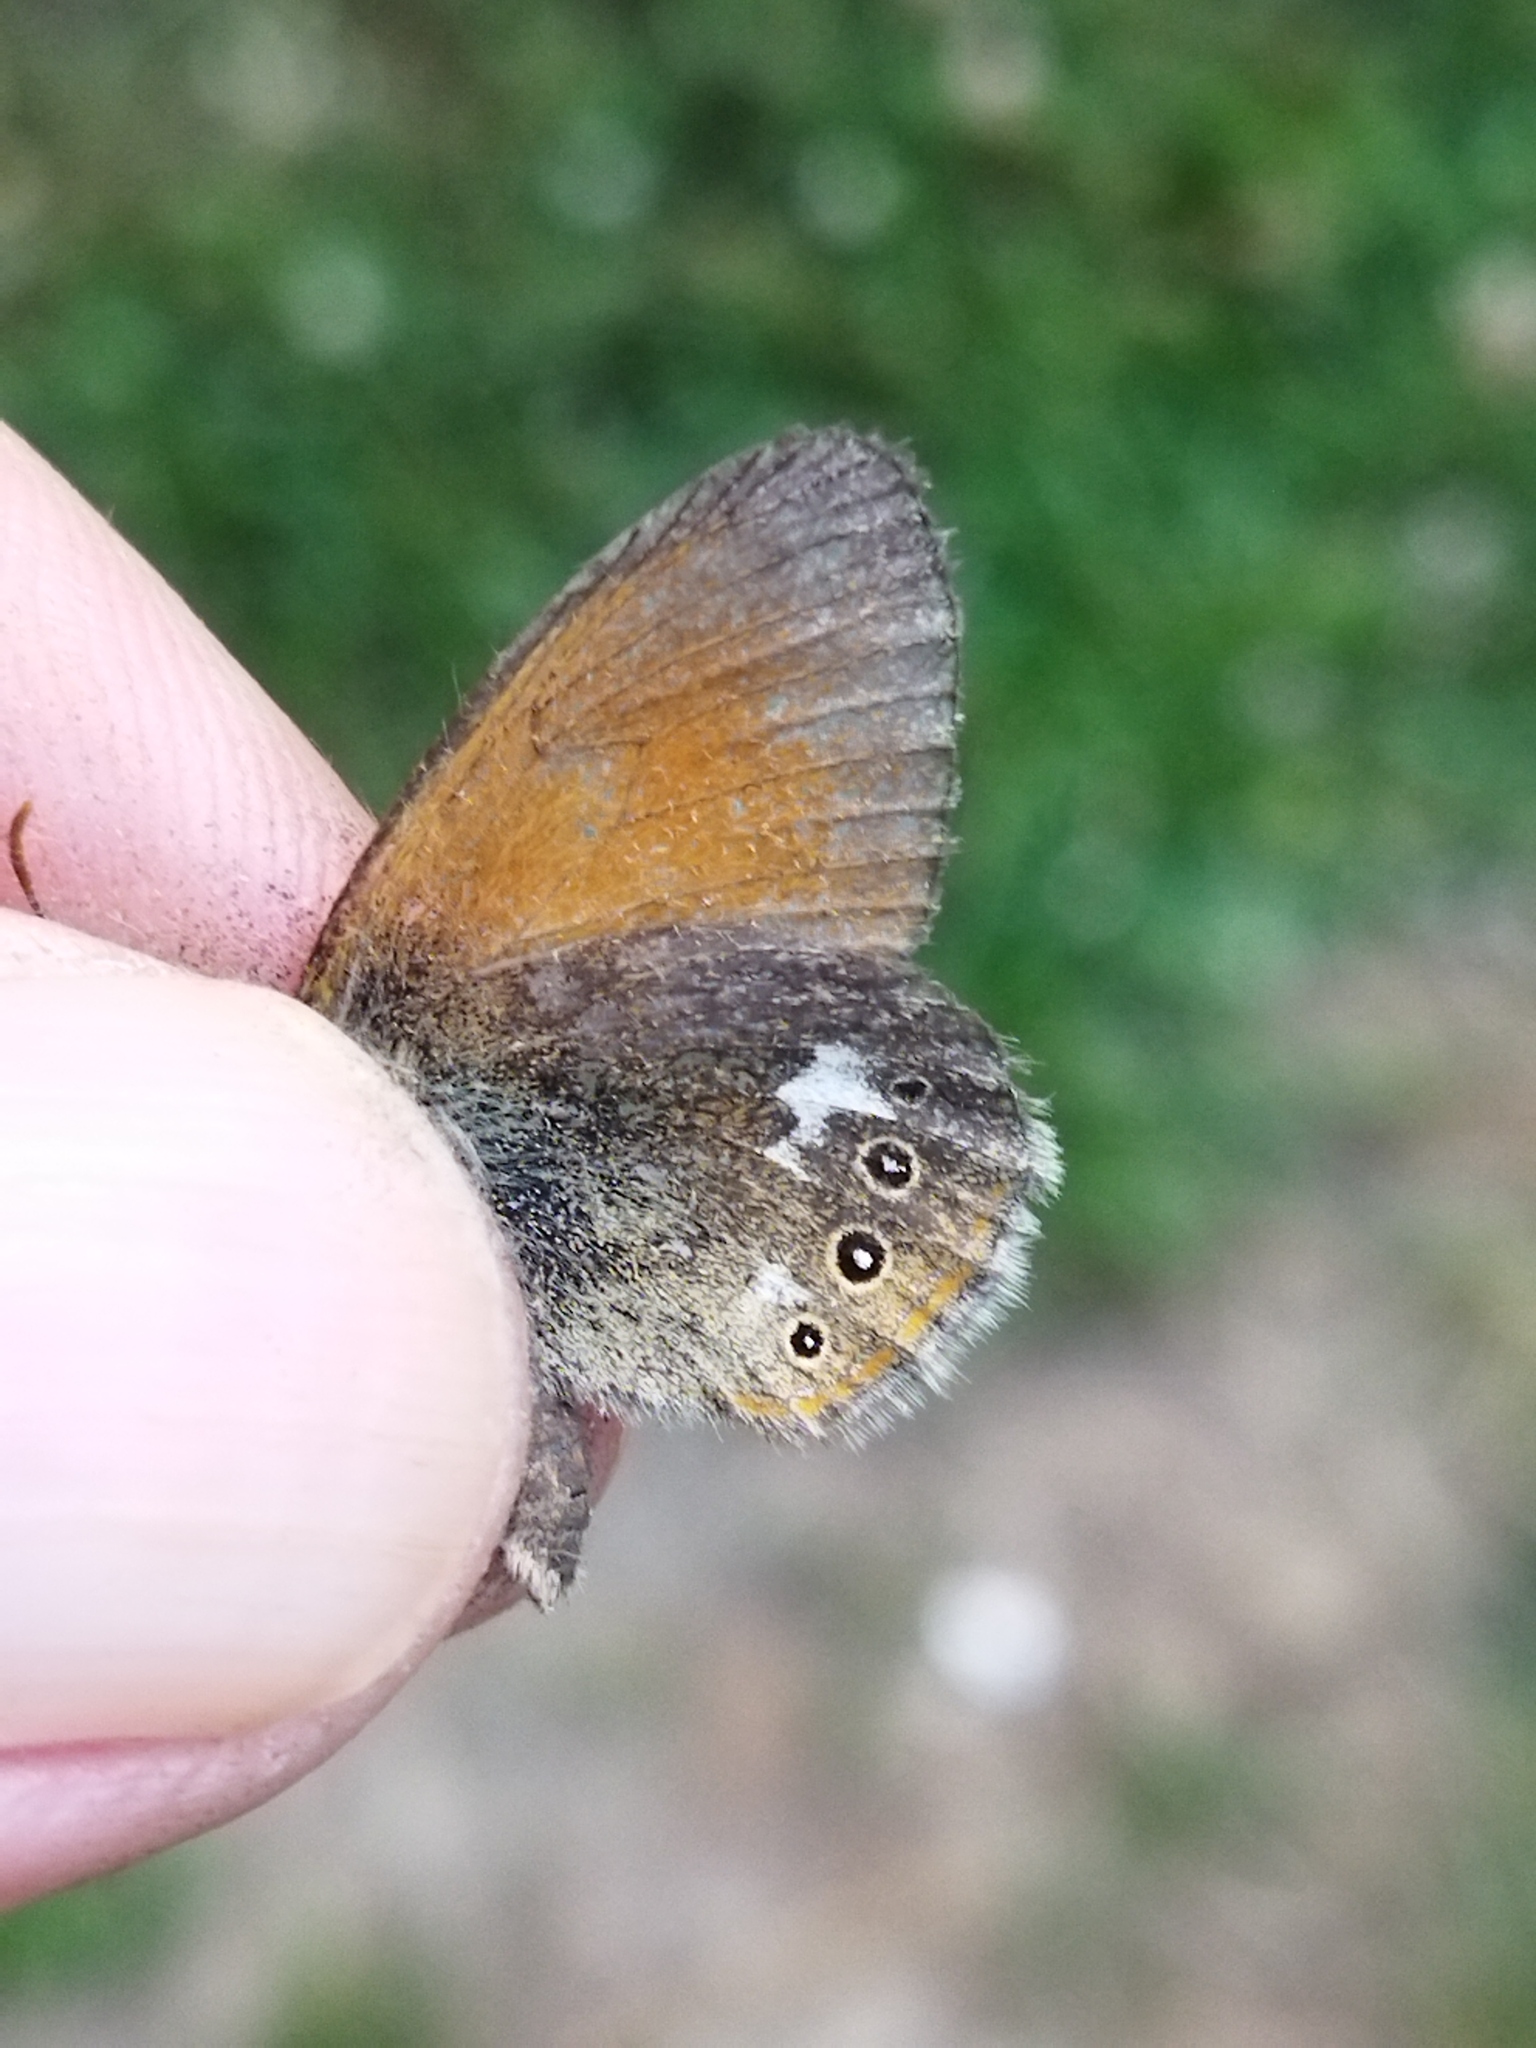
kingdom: Animalia
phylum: Arthropoda
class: Insecta
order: Lepidoptera
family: Nymphalidae
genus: Coenonympha
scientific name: Coenonympha iphis
